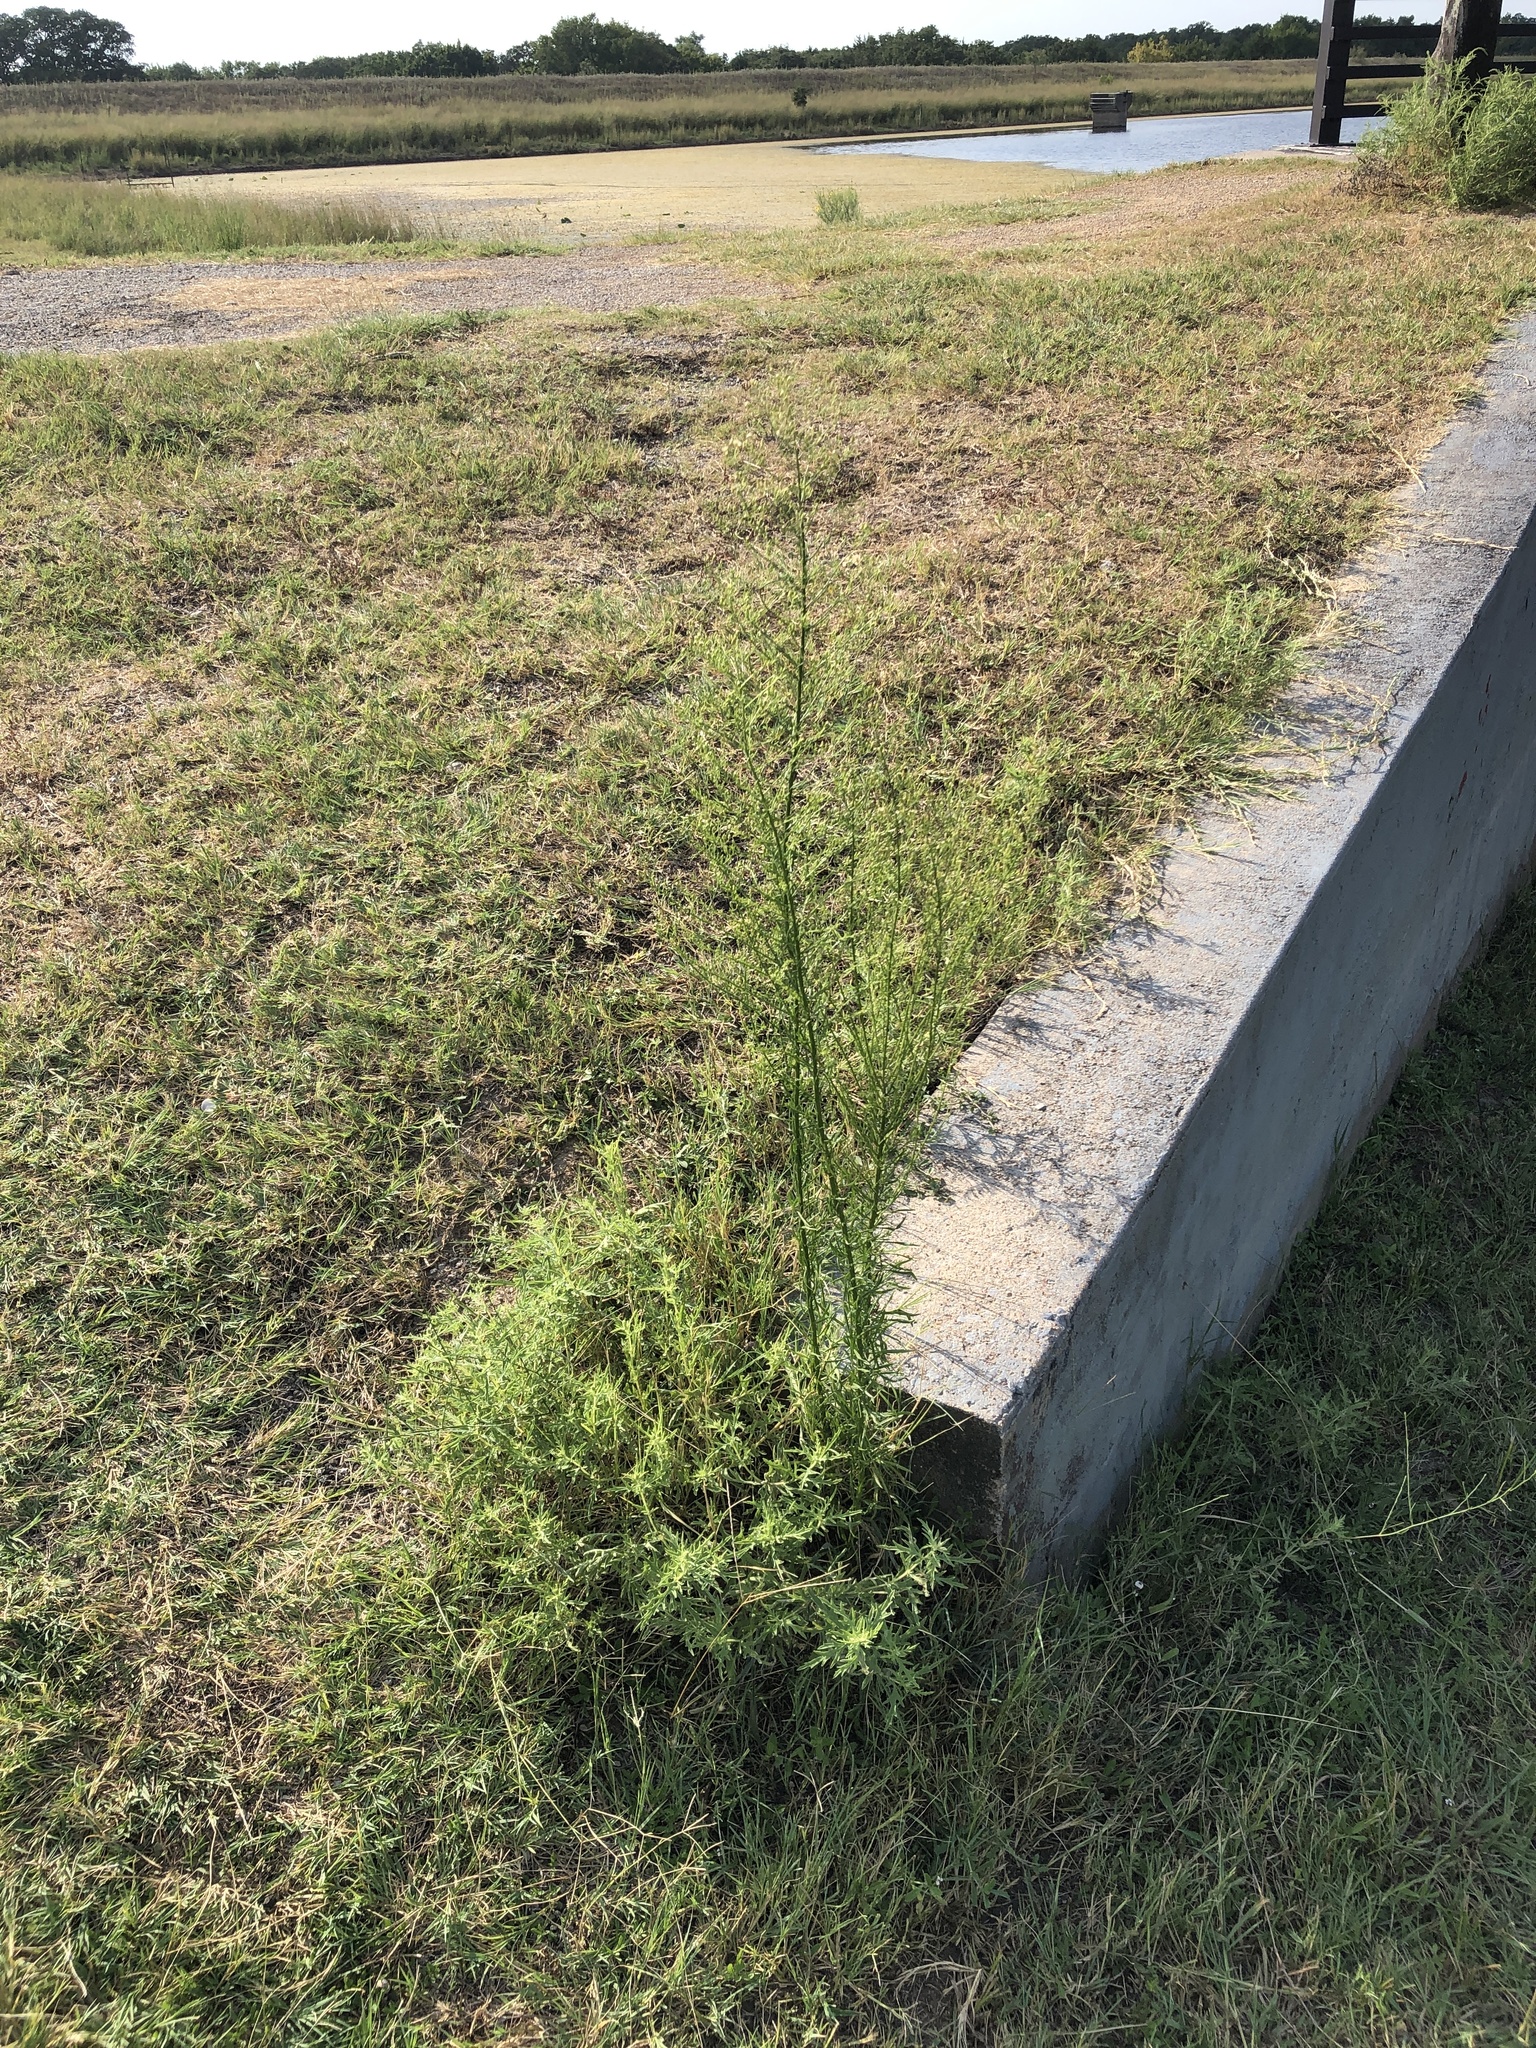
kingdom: Plantae
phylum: Tracheophyta
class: Magnoliopsida
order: Asterales
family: Asteraceae
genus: Erigeron
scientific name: Erigeron canadensis
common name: Canadian fleabane
